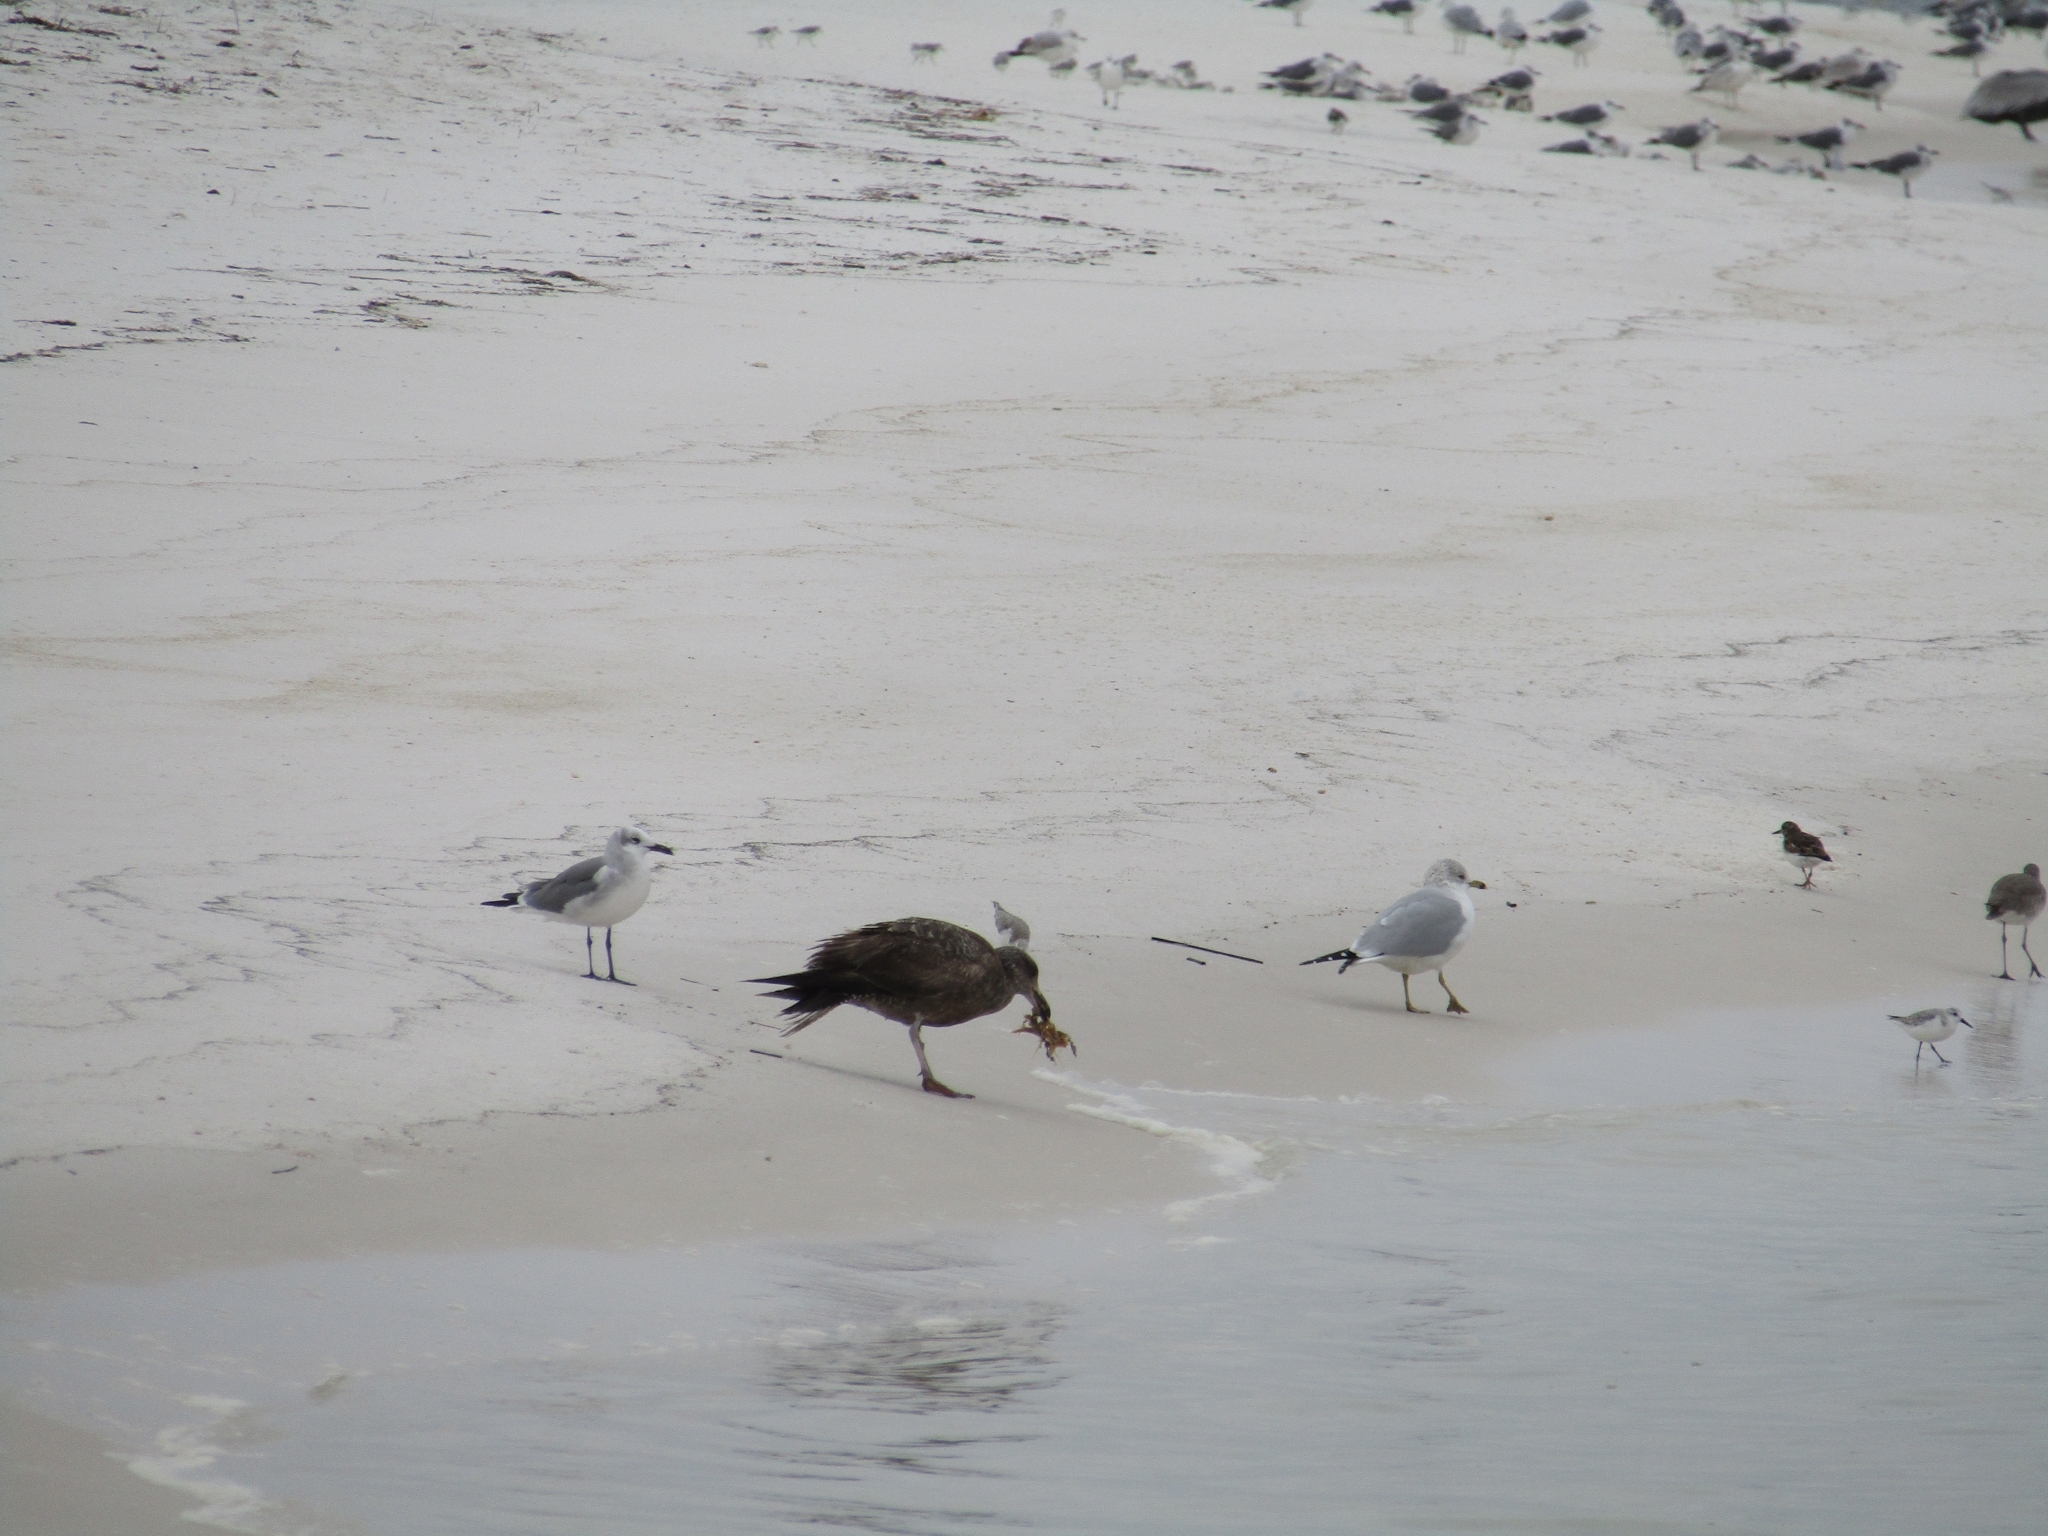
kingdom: Animalia
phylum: Chordata
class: Aves
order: Charadriiformes
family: Laridae
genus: Larus
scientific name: Larus argentatus
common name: Herring gull
